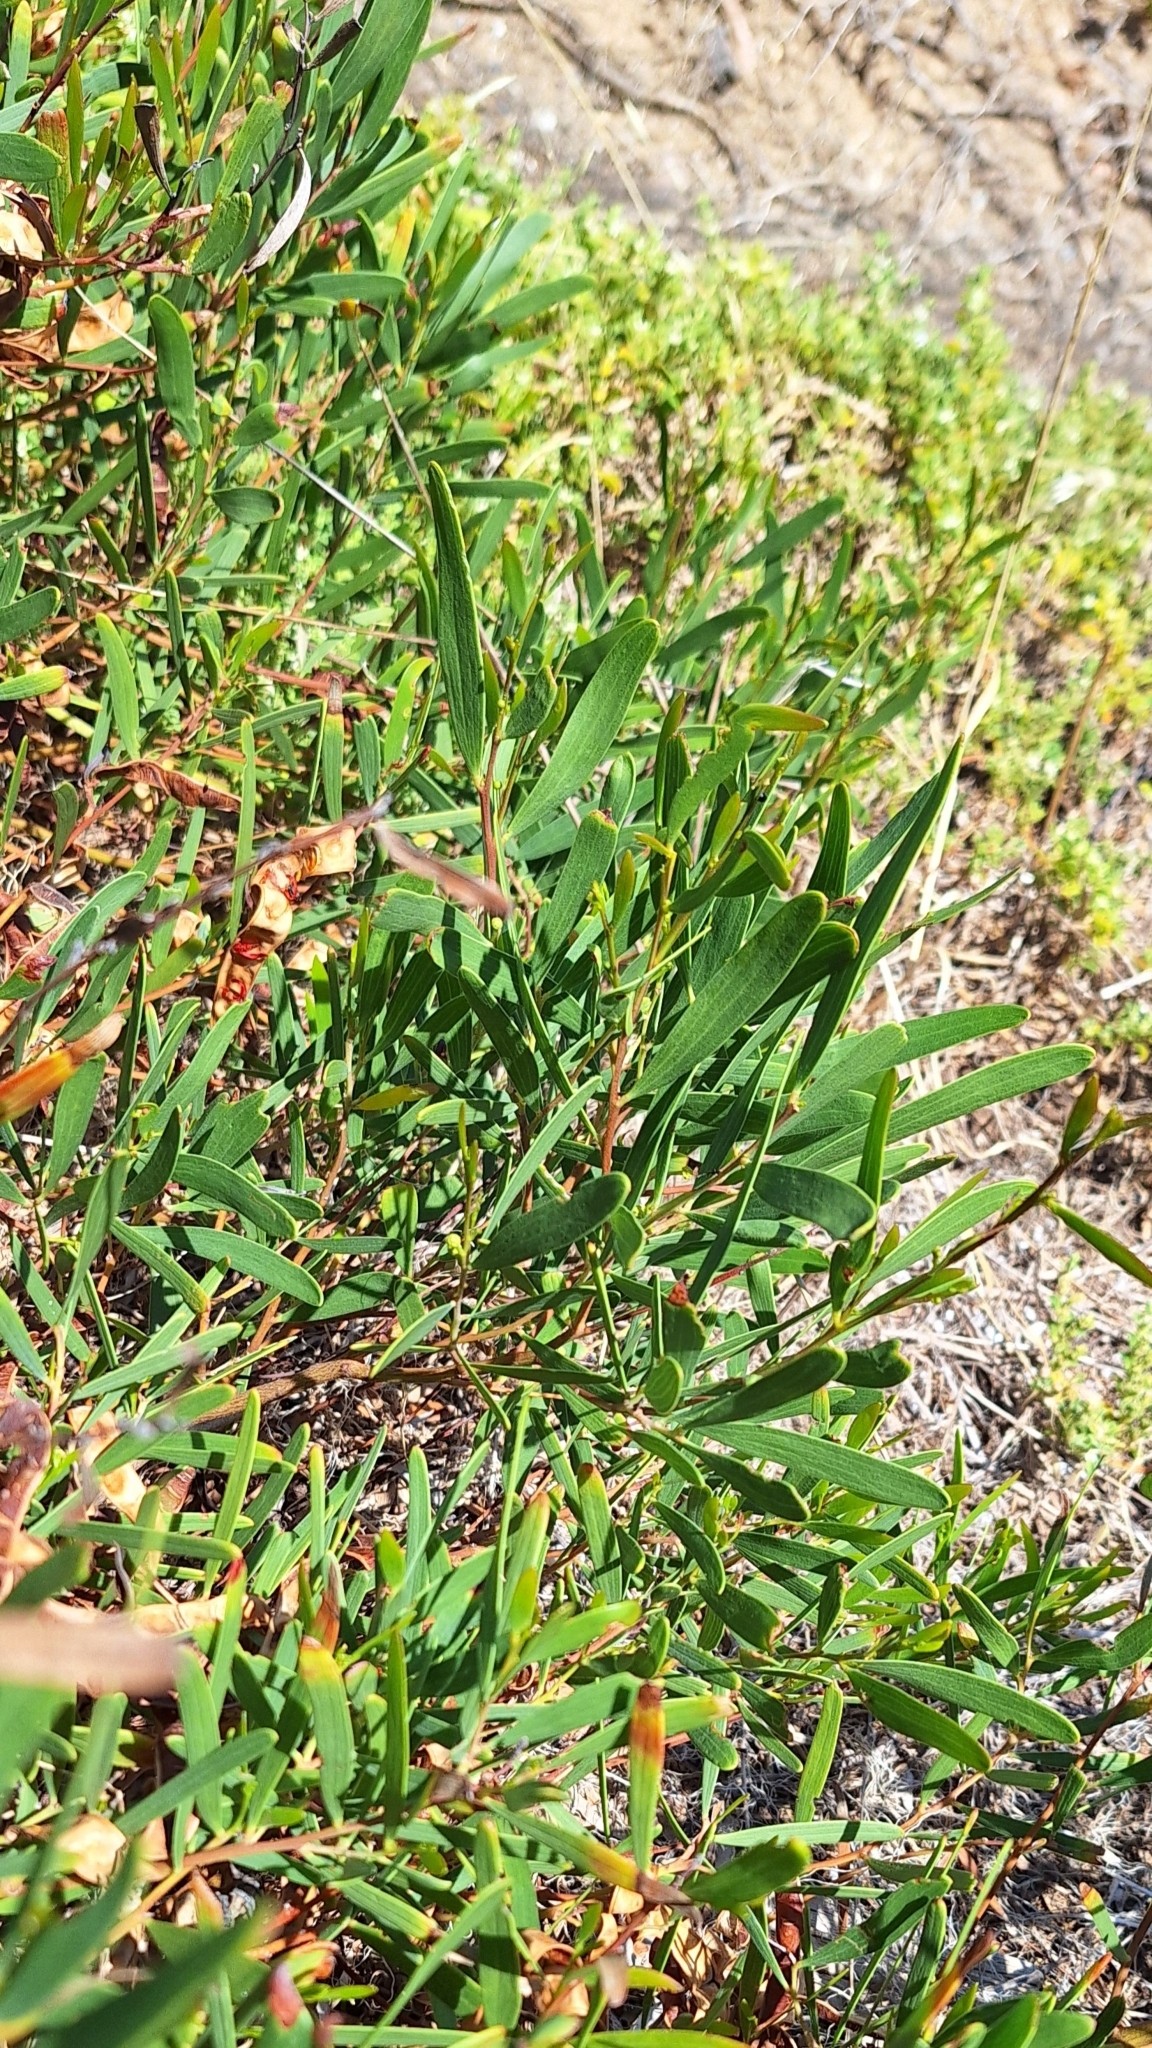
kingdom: Plantae
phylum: Tracheophyta
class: Magnoliopsida
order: Fabales
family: Fabaceae
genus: Acacia
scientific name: Acacia cyclops
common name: Coastal wattle
